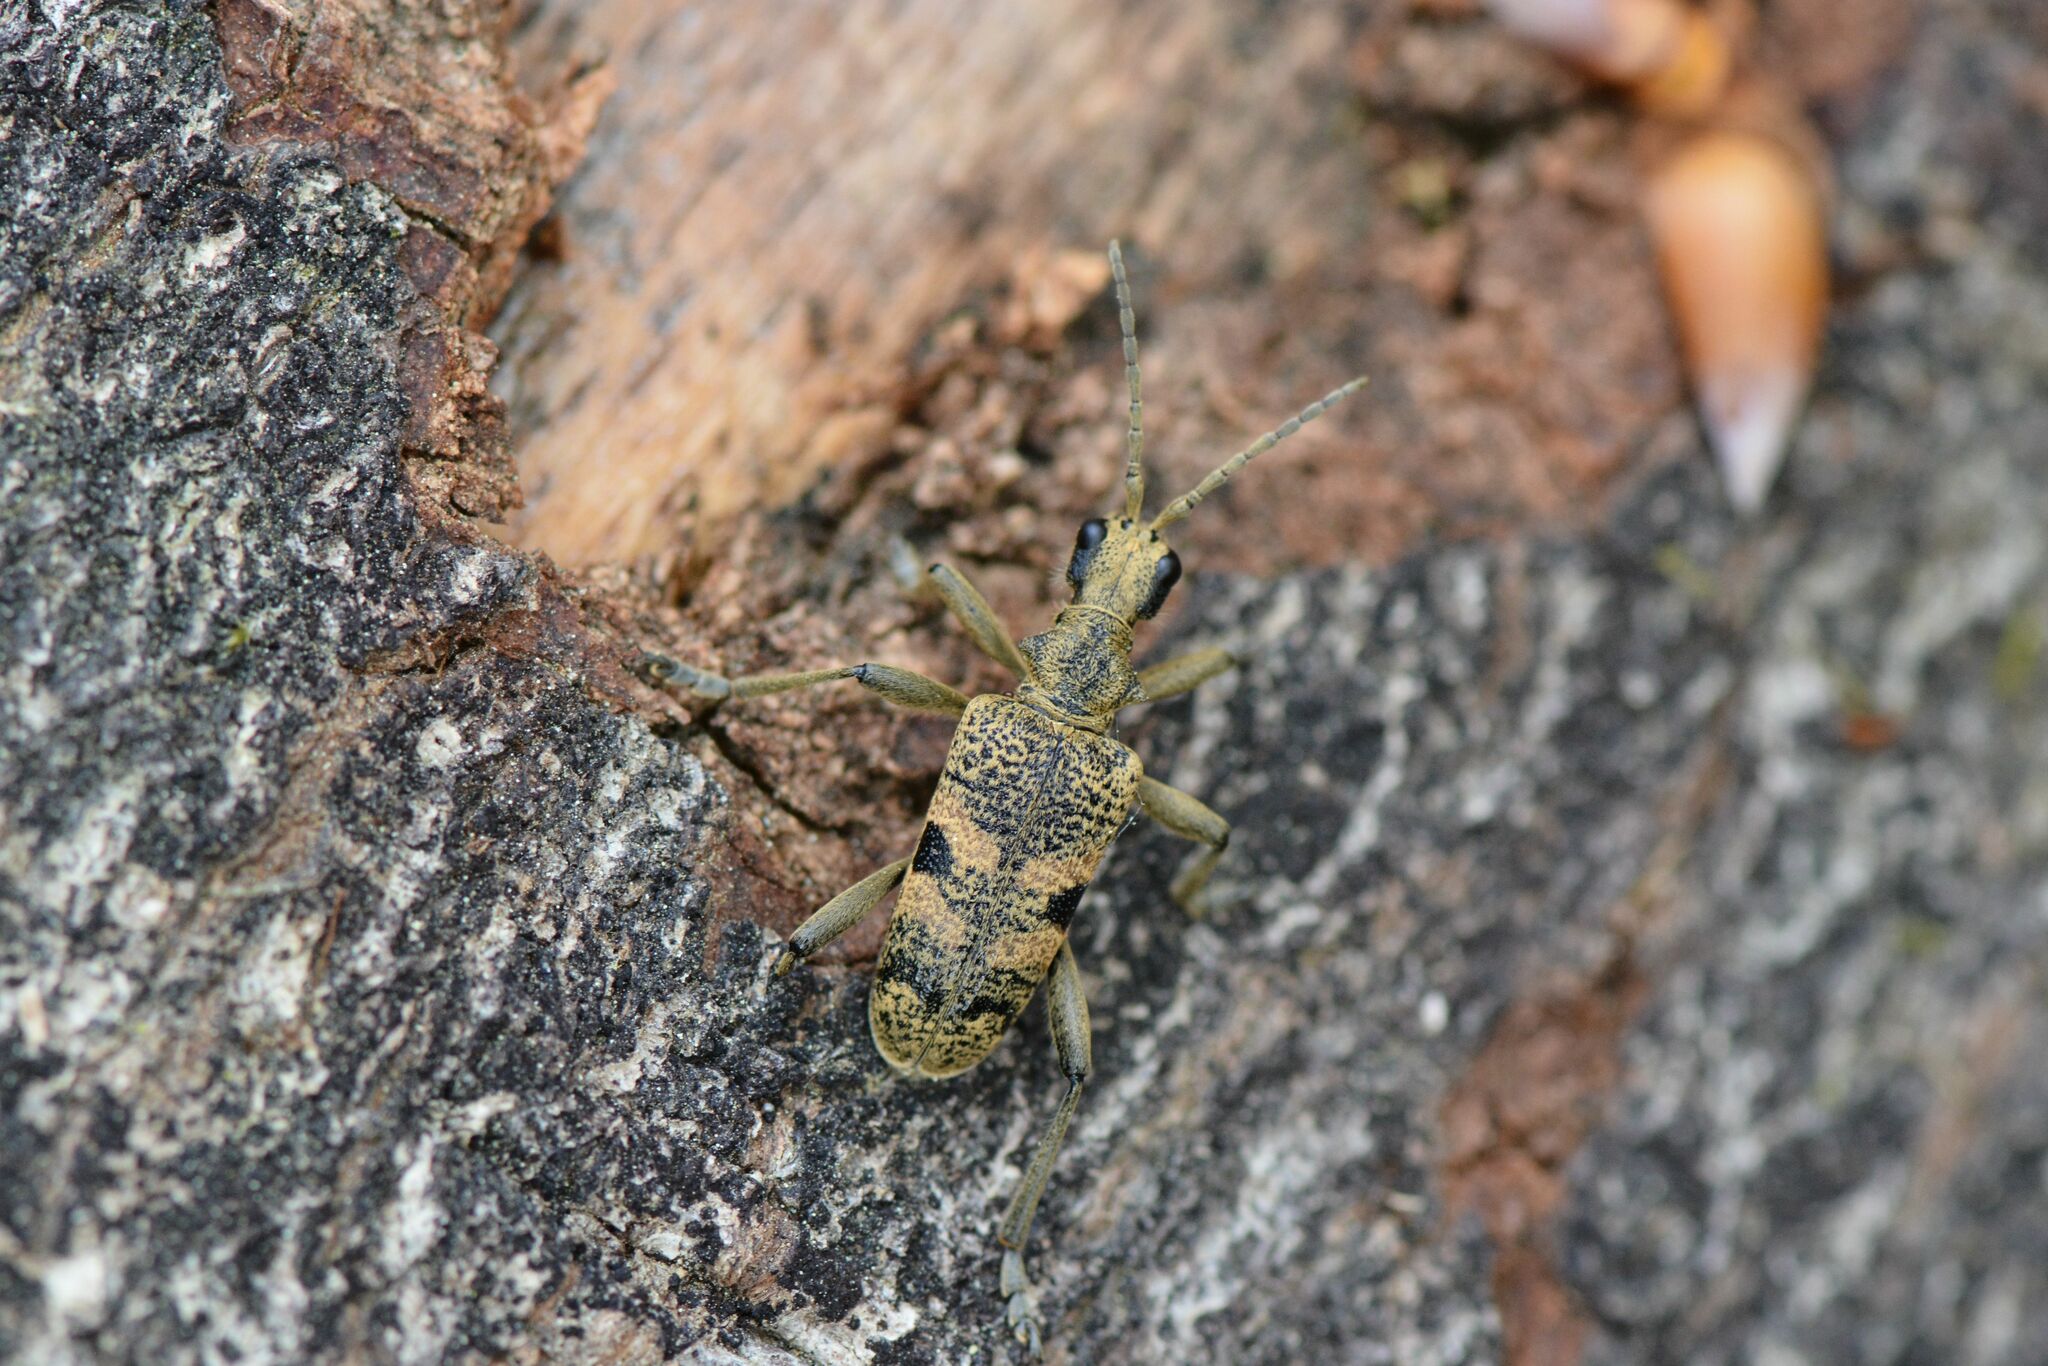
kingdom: Animalia
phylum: Arthropoda
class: Insecta
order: Coleoptera
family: Cerambycidae
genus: Rhagium
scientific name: Rhagium mordax
